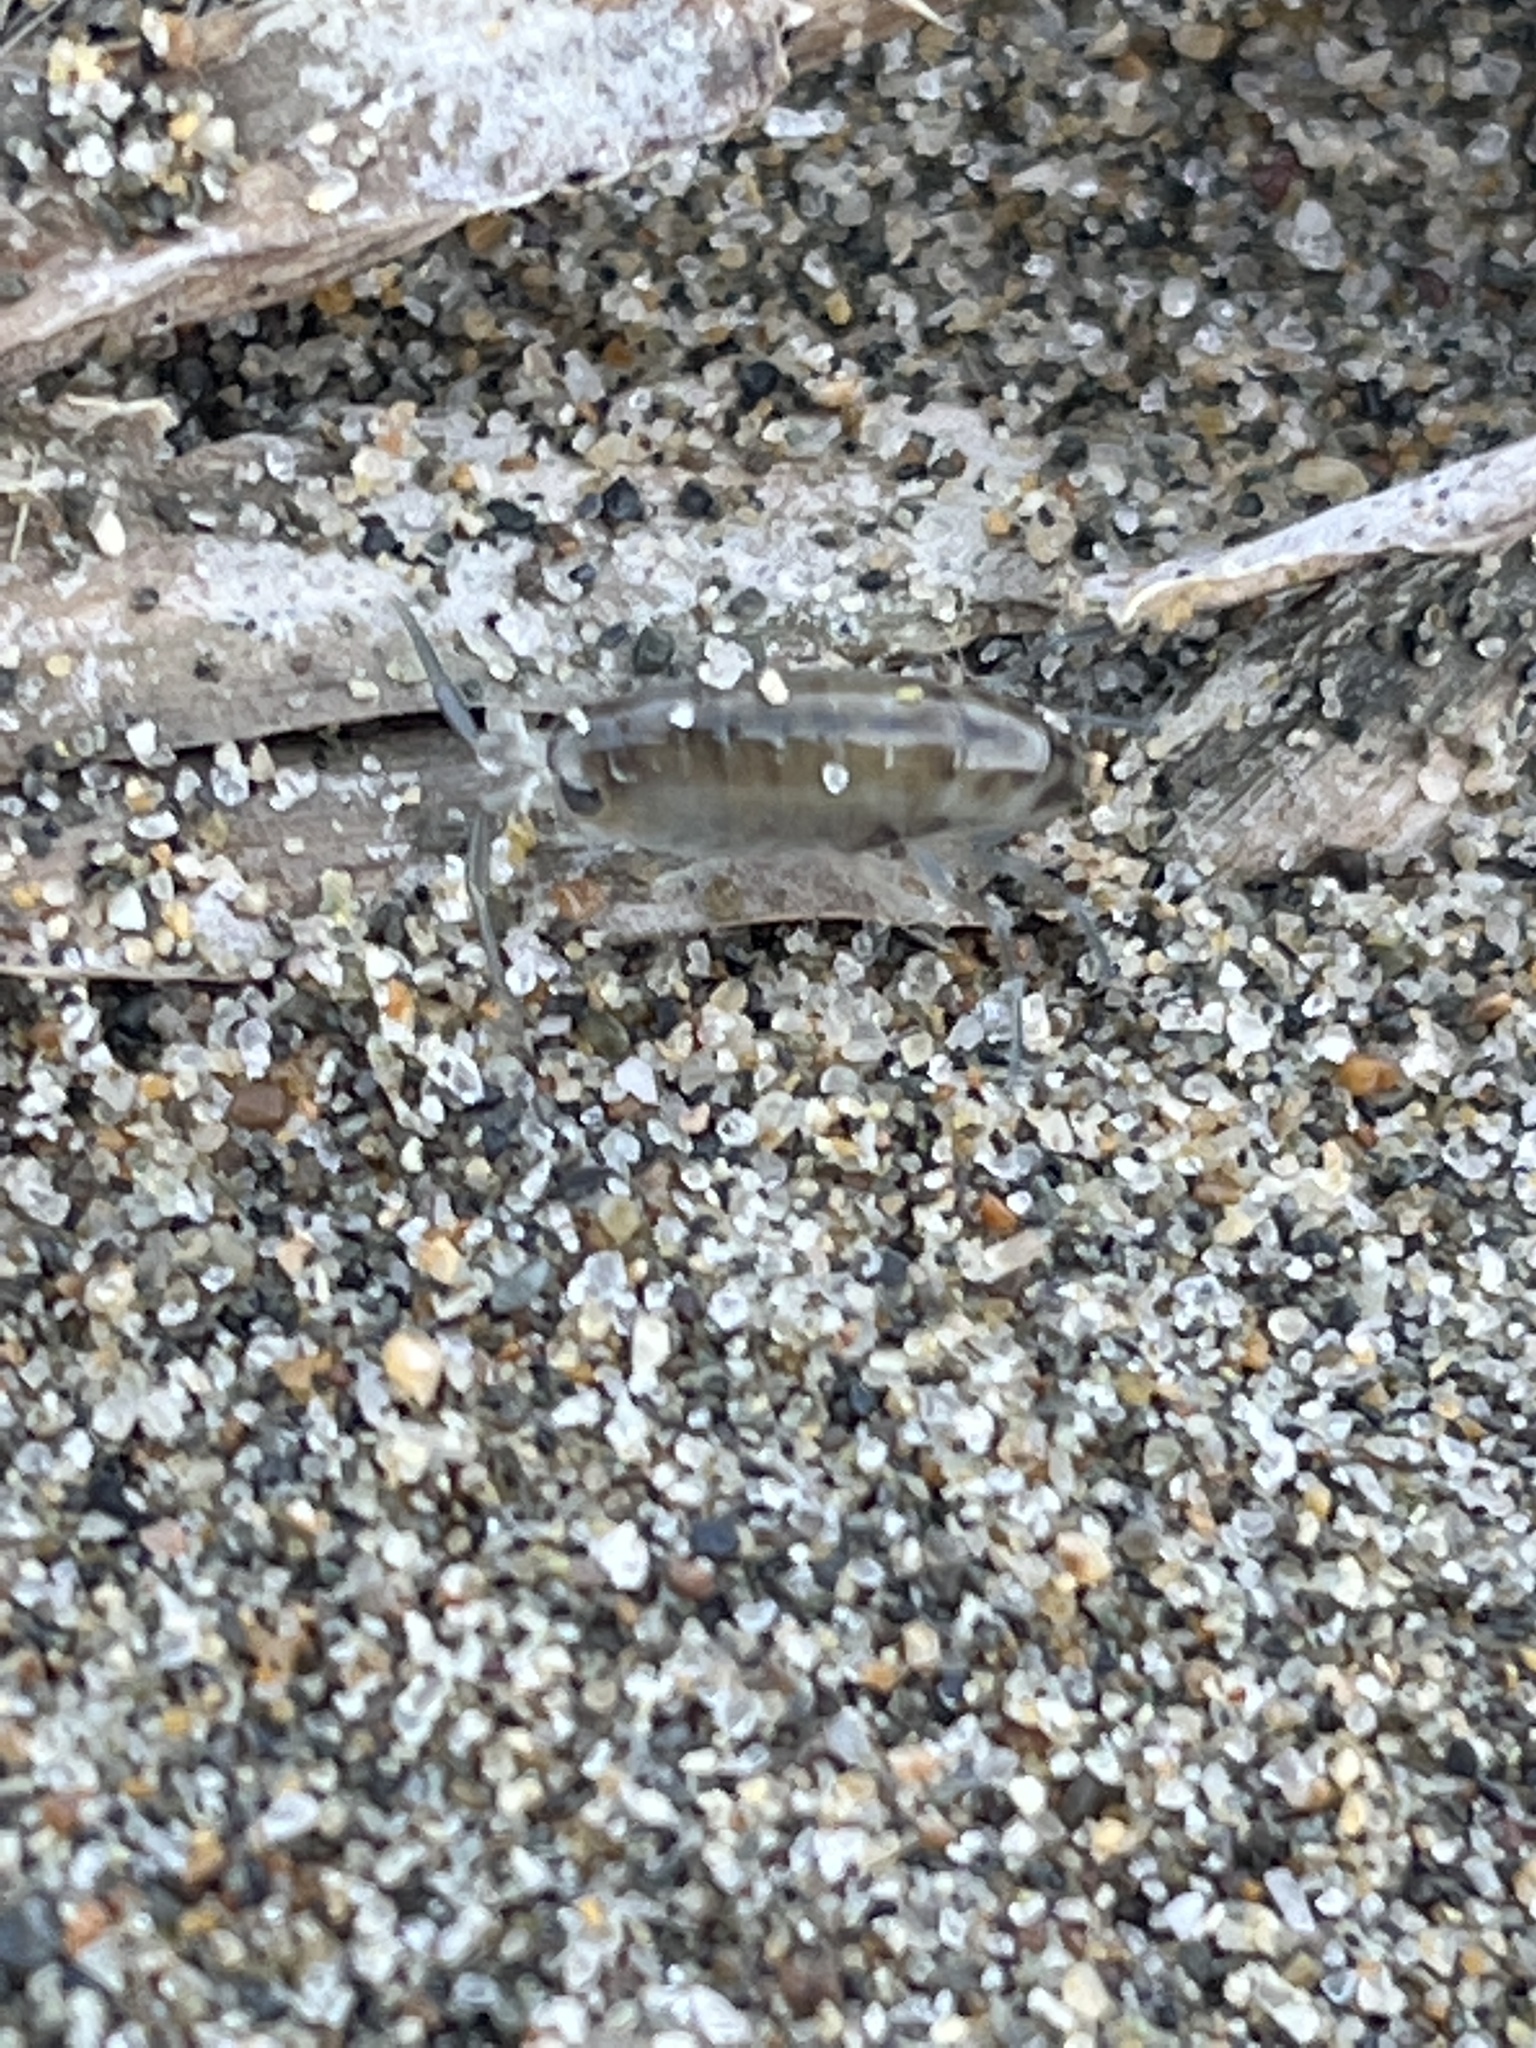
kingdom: Animalia
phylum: Arthropoda
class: Malacostraca
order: Amphipoda
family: Talitridae
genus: Megalorchestia
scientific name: Megalorchestia californiana
